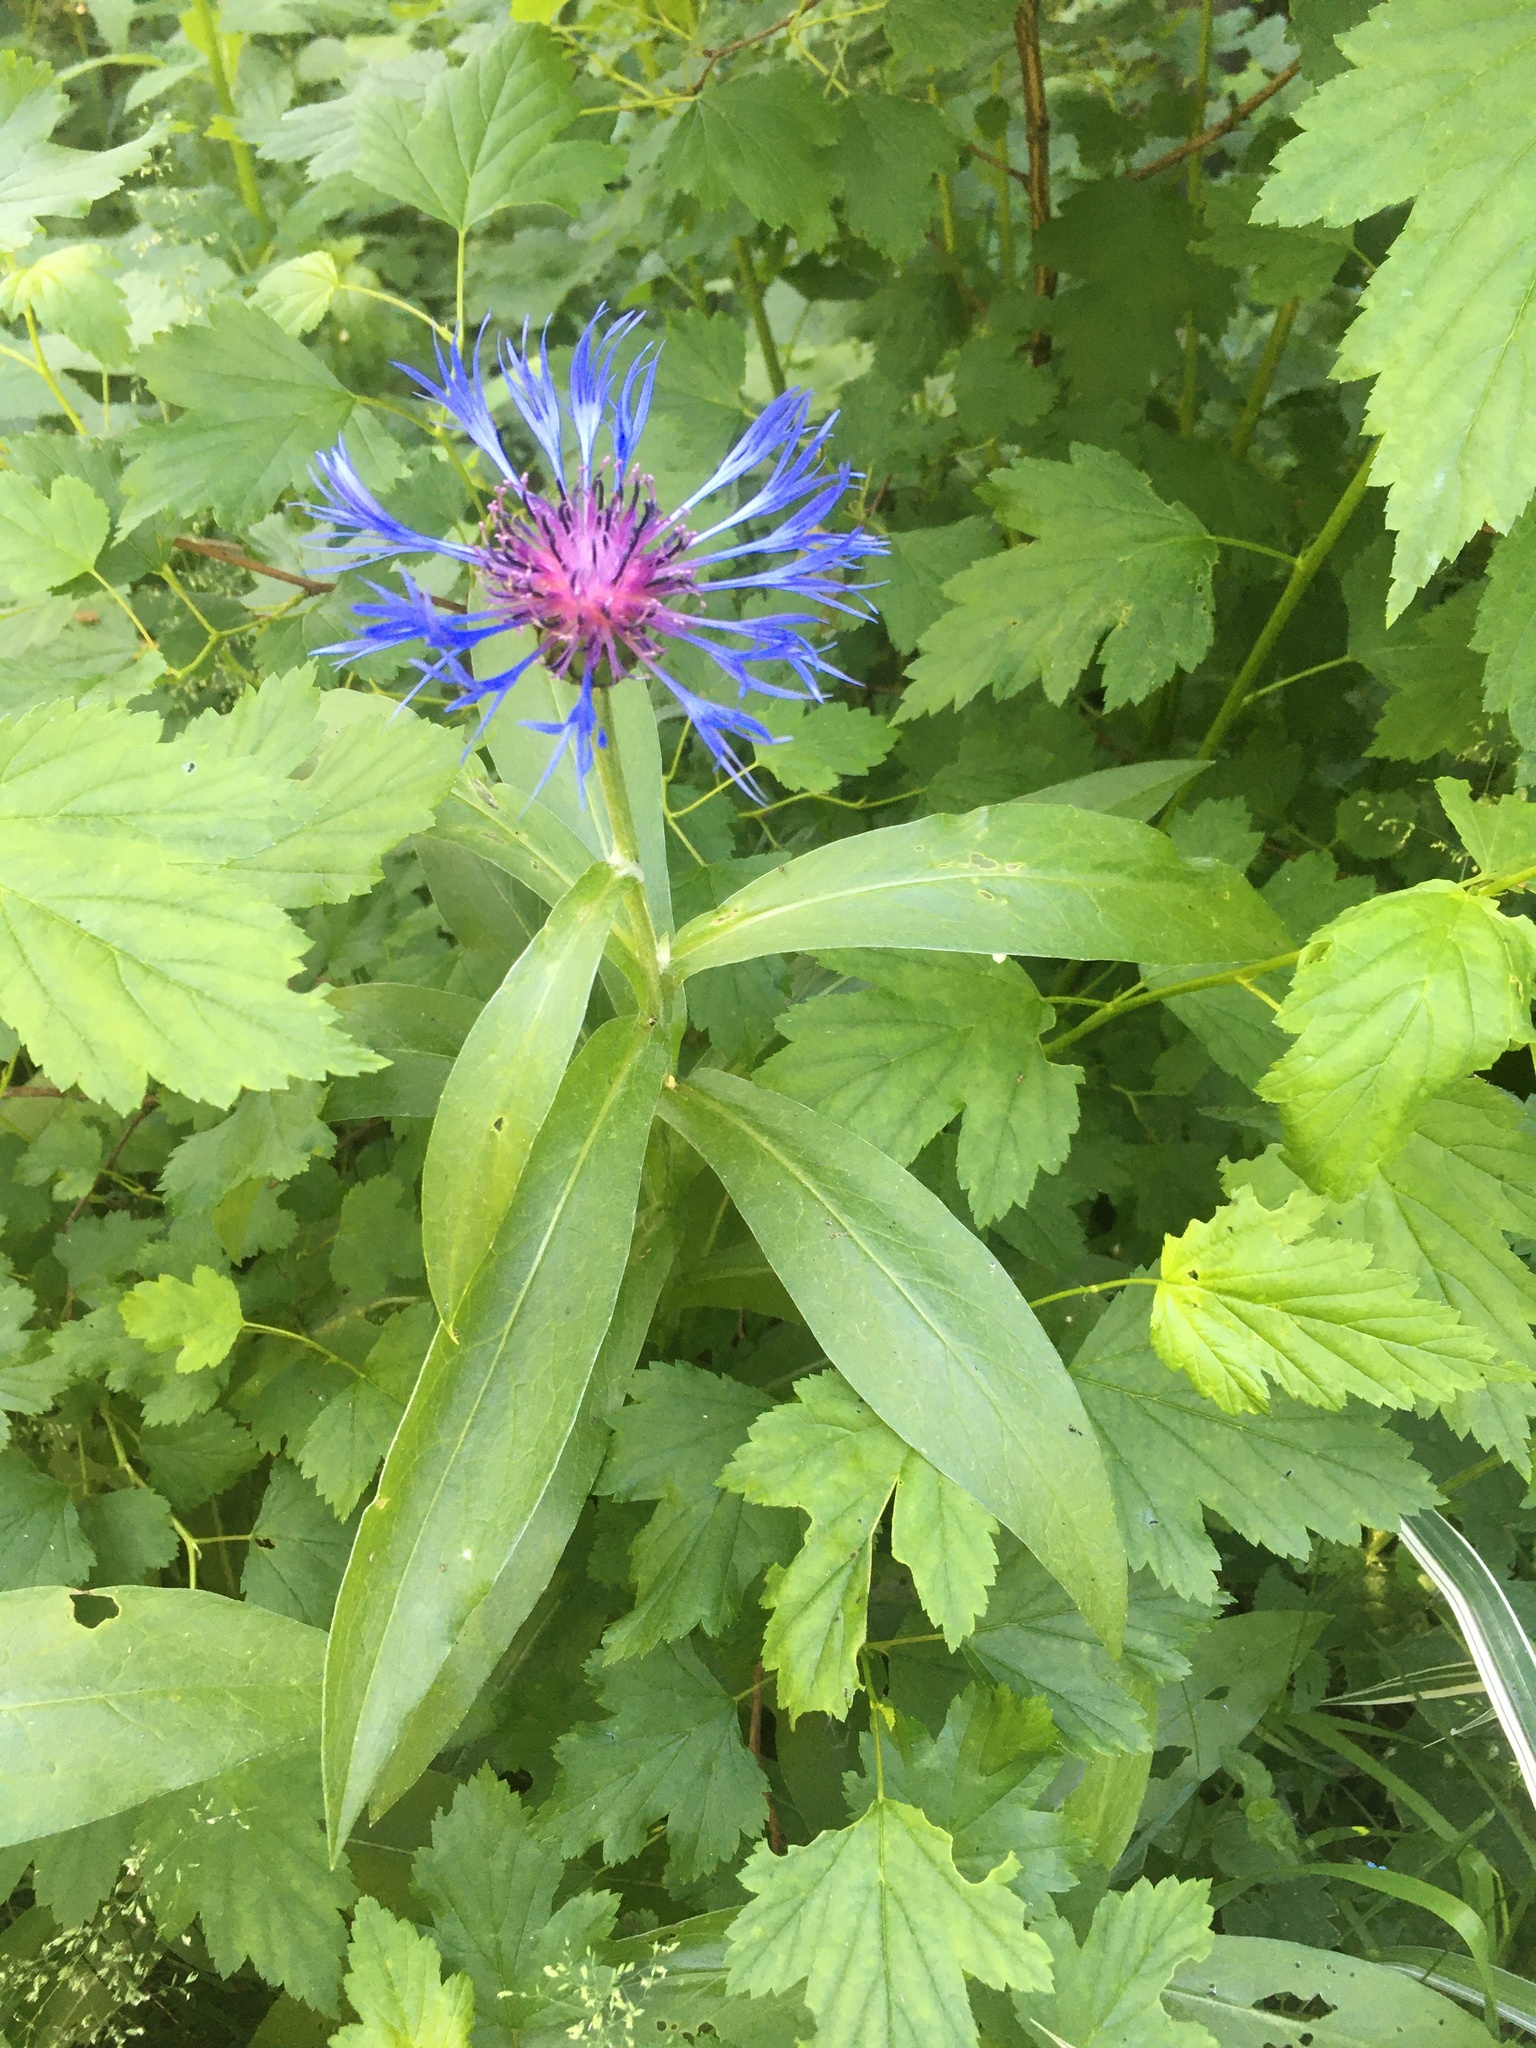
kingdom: Plantae
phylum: Tracheophyta
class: Magnoliopsida
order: Asterales
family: Asteraceae
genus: Centaurea
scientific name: Centaurea montana
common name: Perennial cornflower
